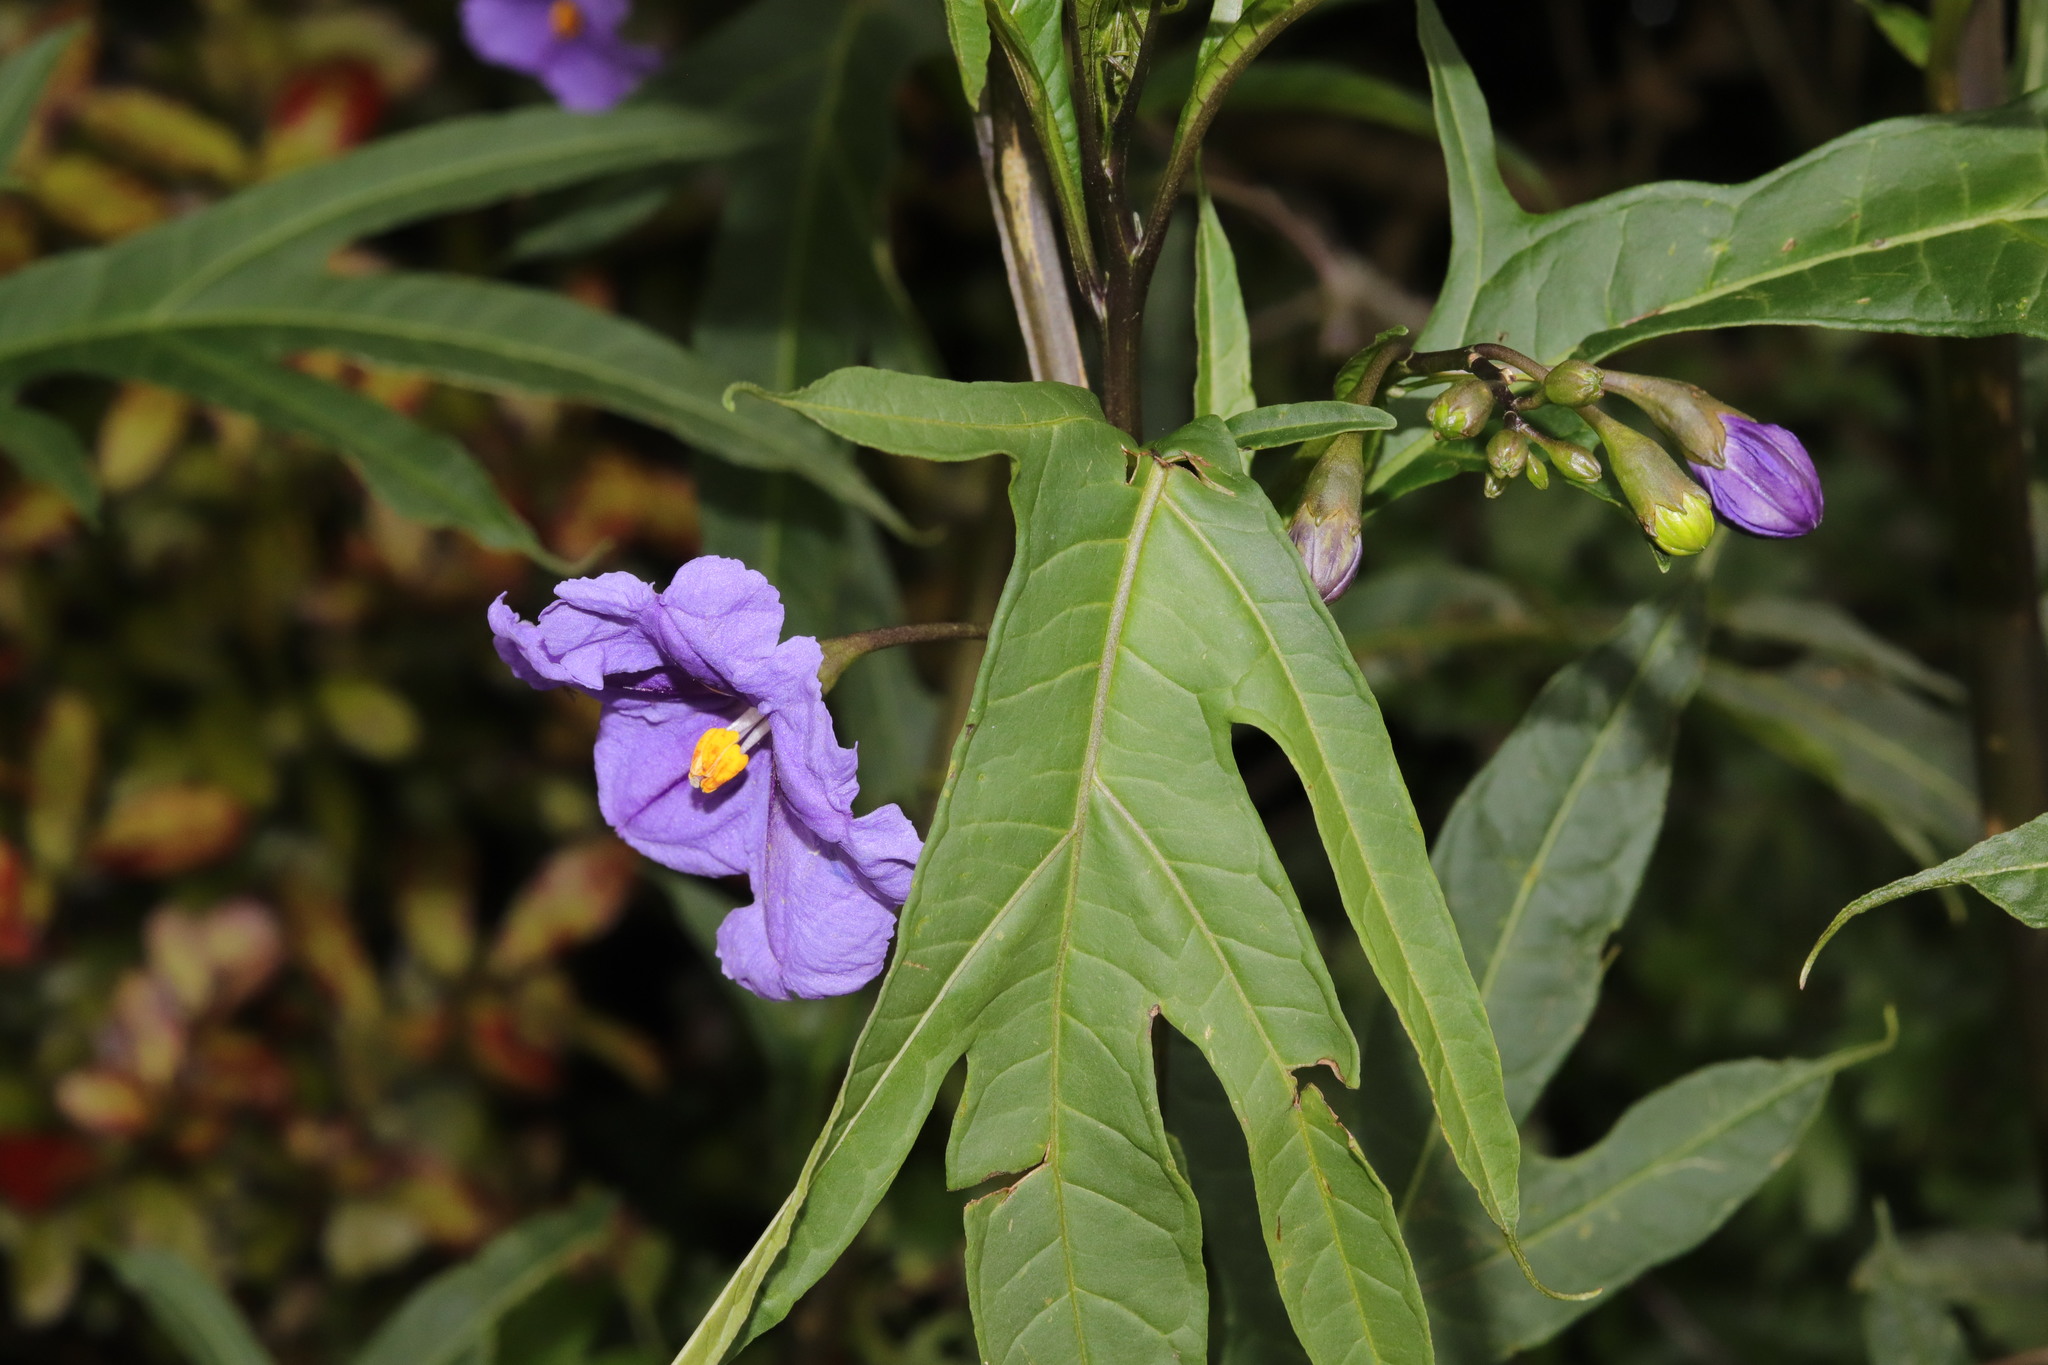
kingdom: Plantae
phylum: Tracheophyta
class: Magnoliopsida
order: Solanales
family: Solanaceae
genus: Solanum
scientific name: Solanum laciniatum
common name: Kangaroo-apple
